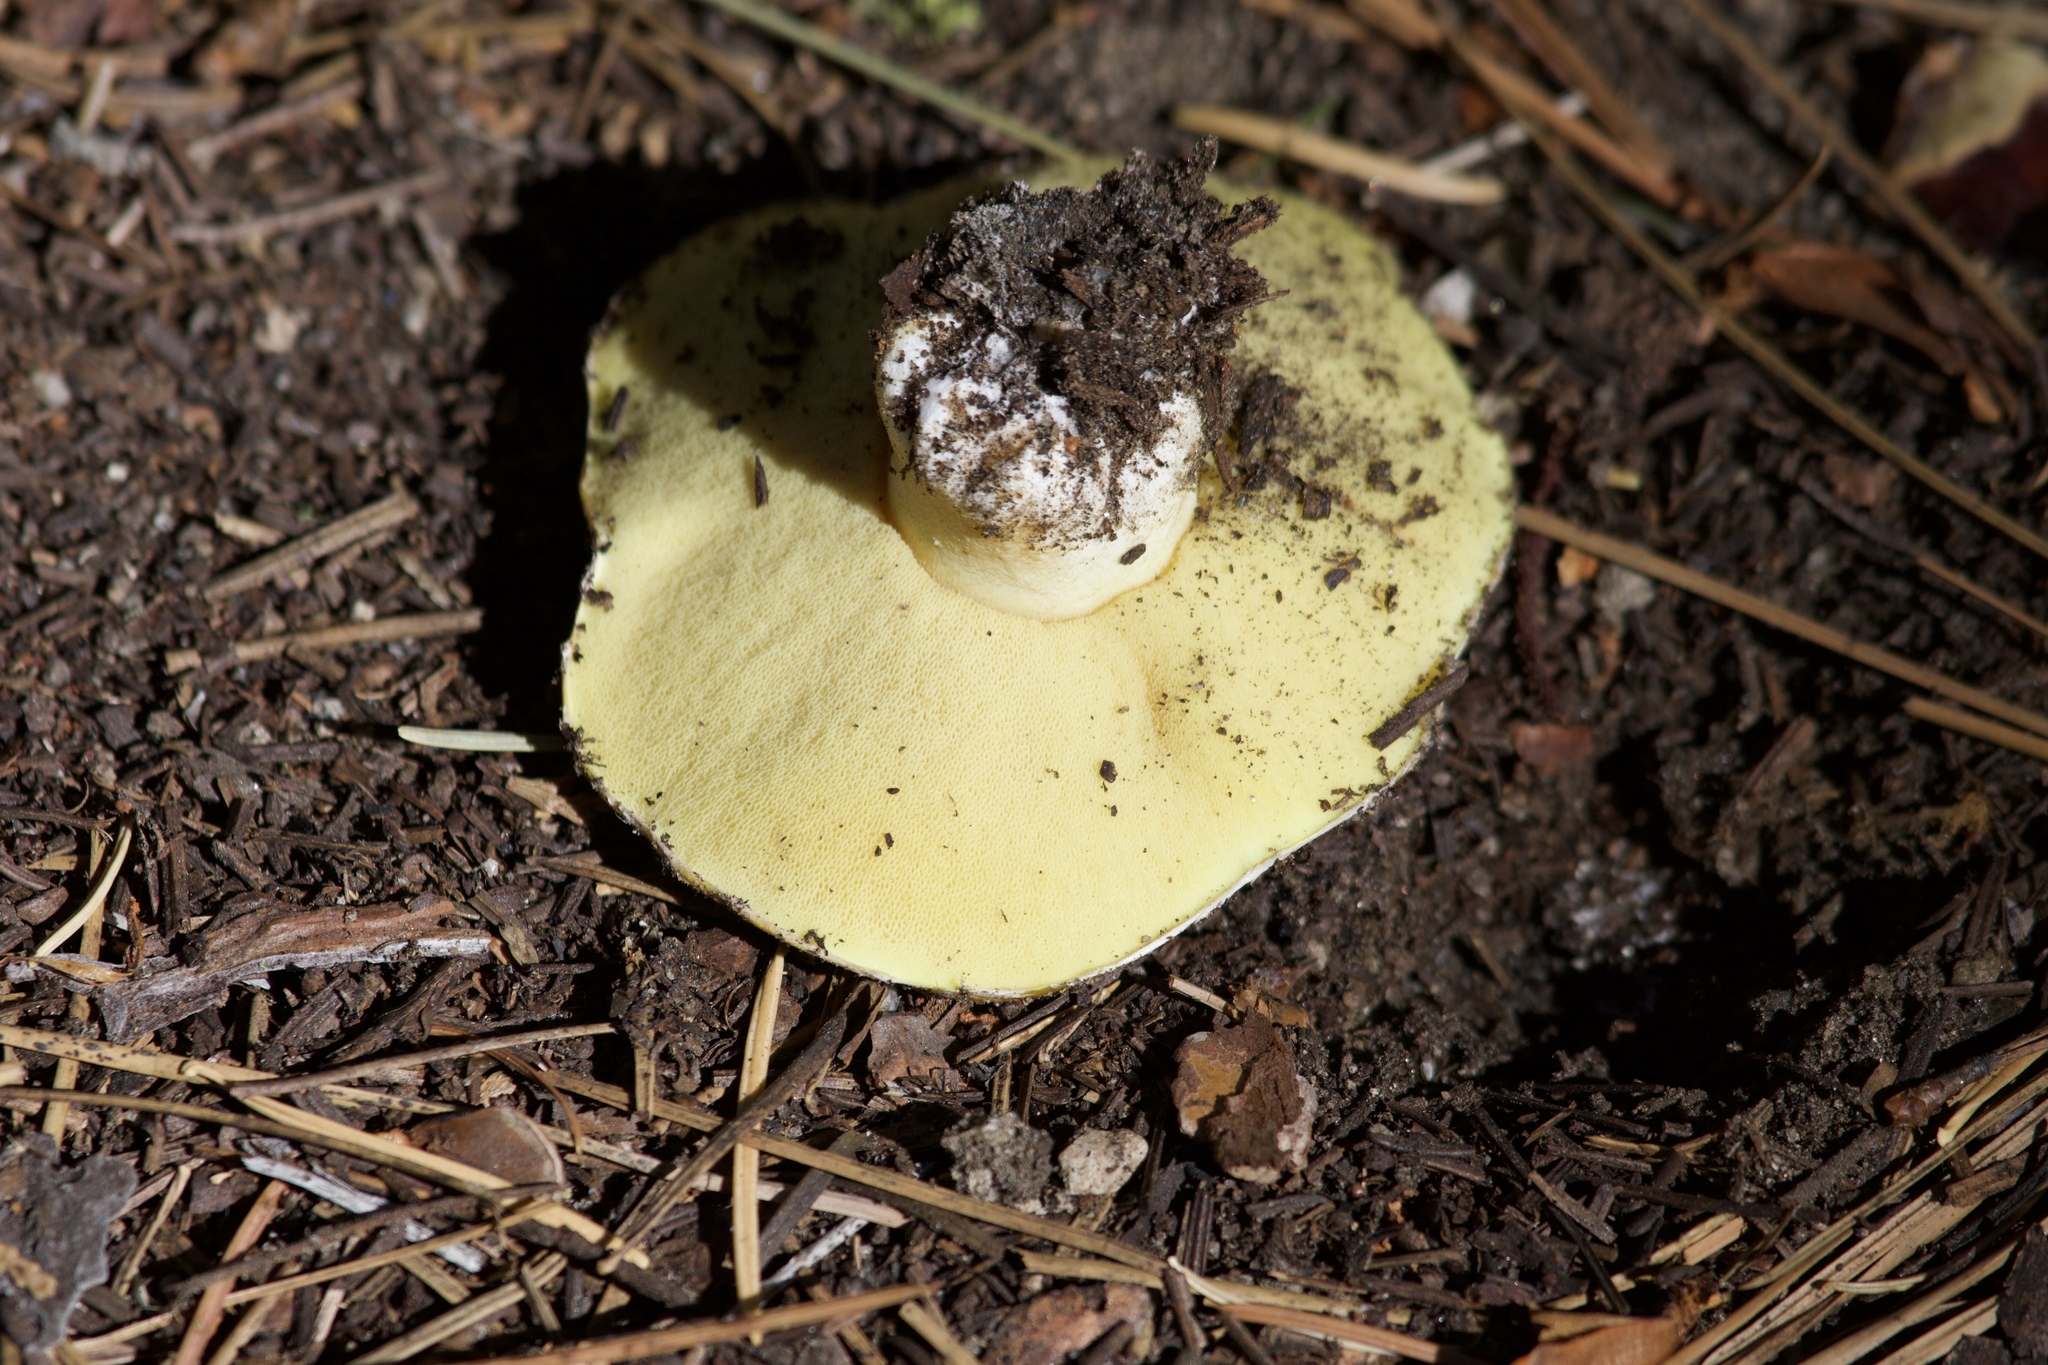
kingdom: Fungi
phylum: Basidiomycota
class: Agaricomycetes
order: Boletales
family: Suillaceae
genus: Suillus
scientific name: Suillus pseudobrevipes
